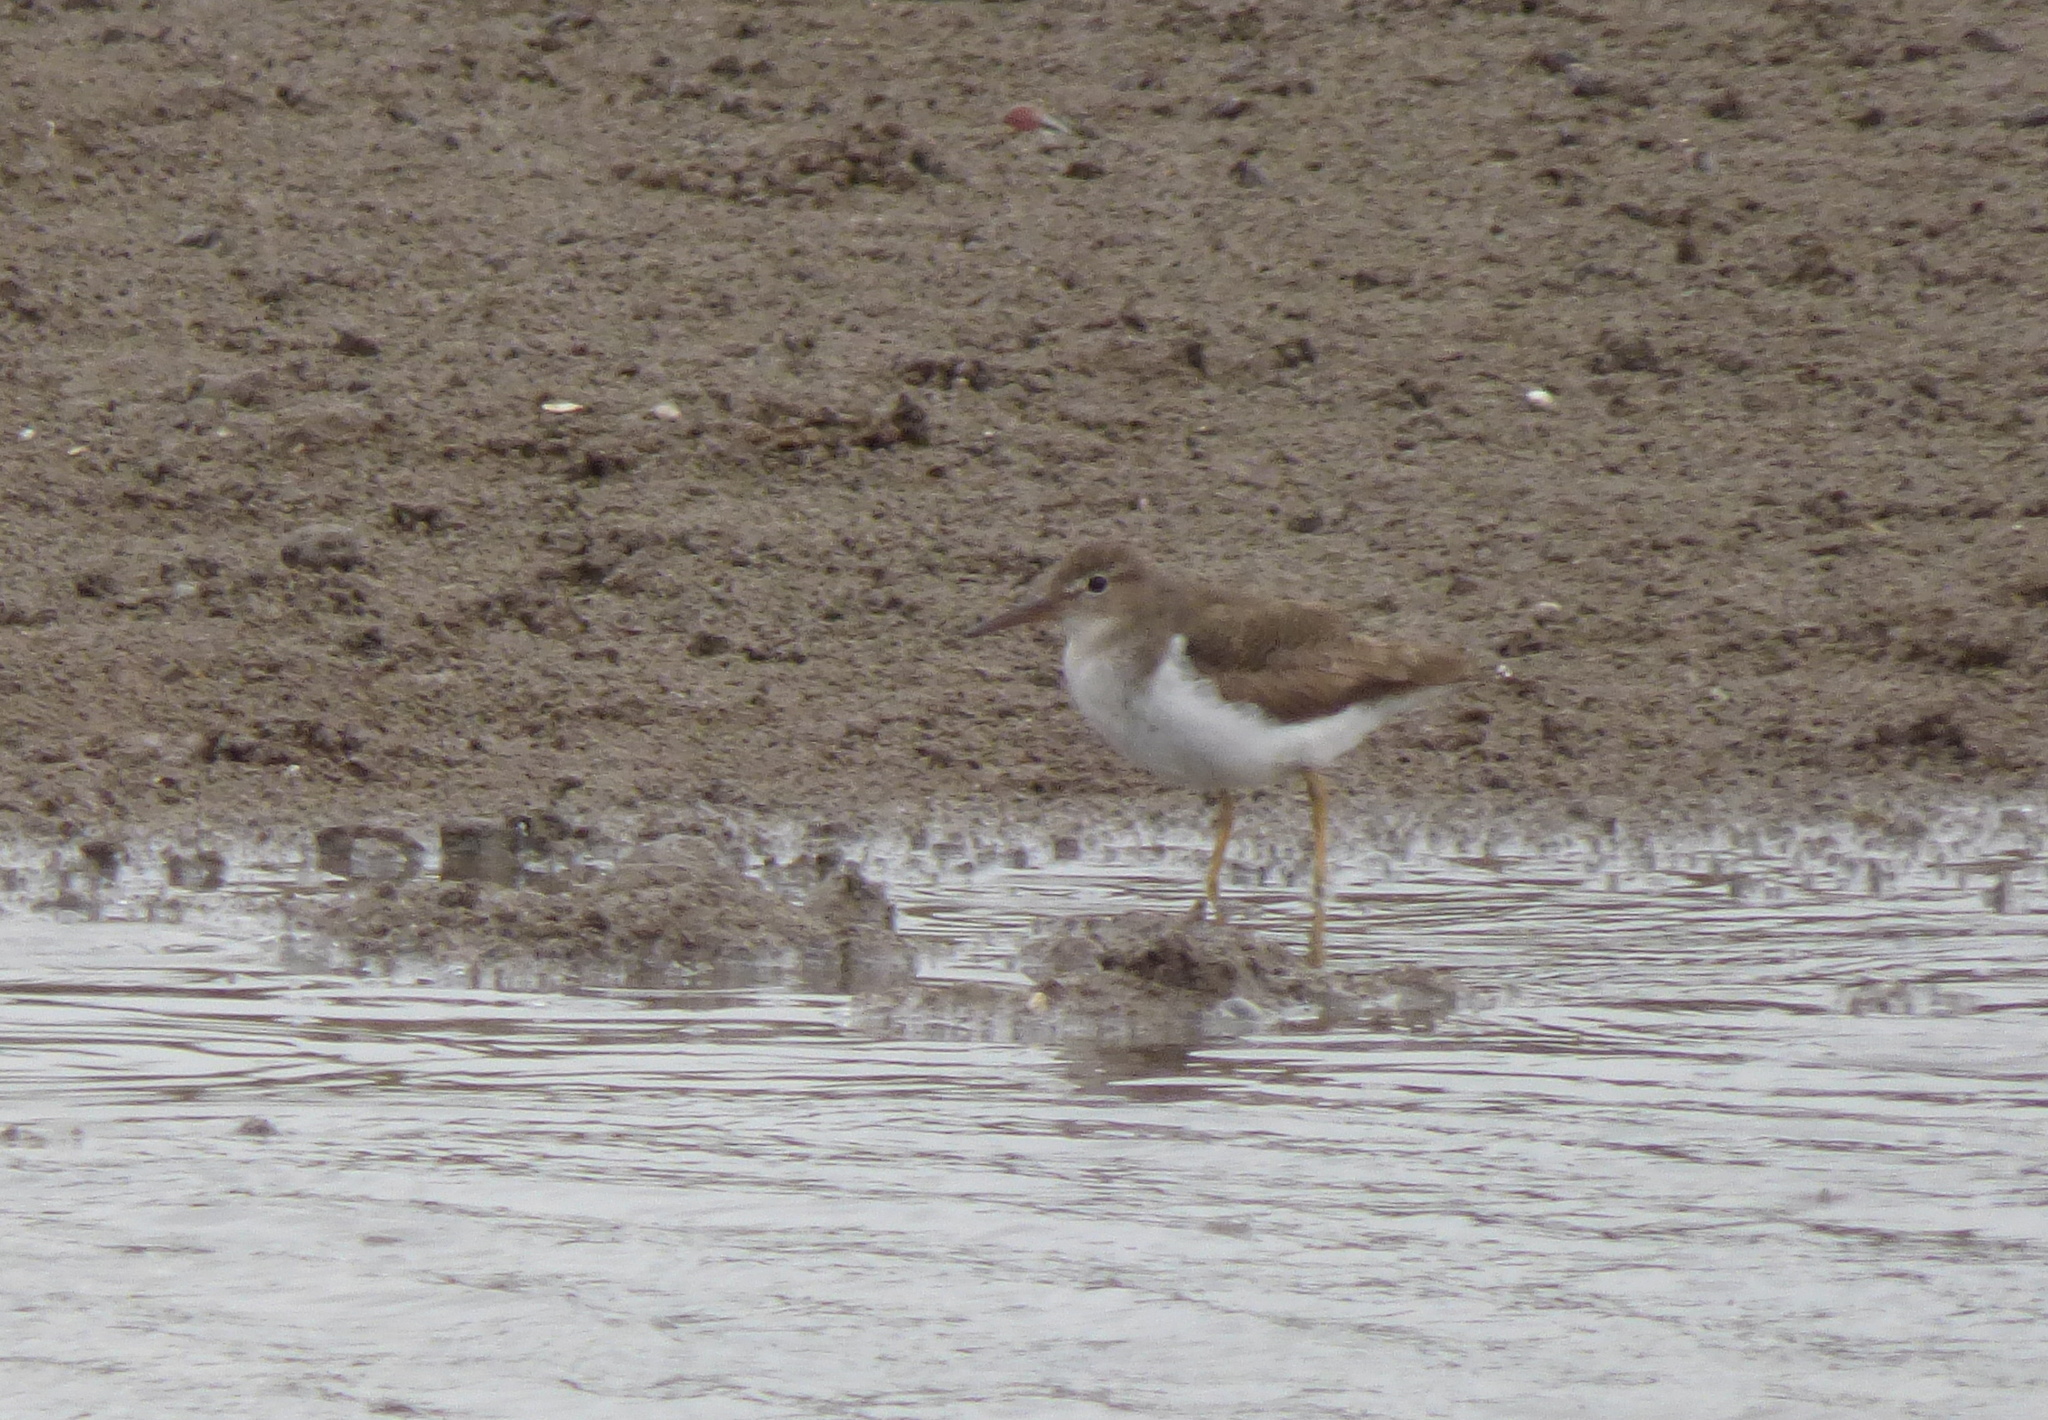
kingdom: Animalia
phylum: Chordata
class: Aves
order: Charadriiformes
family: Scolopacidae
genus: Actitis
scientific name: Actitis macularius
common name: Spotted sandpiper
